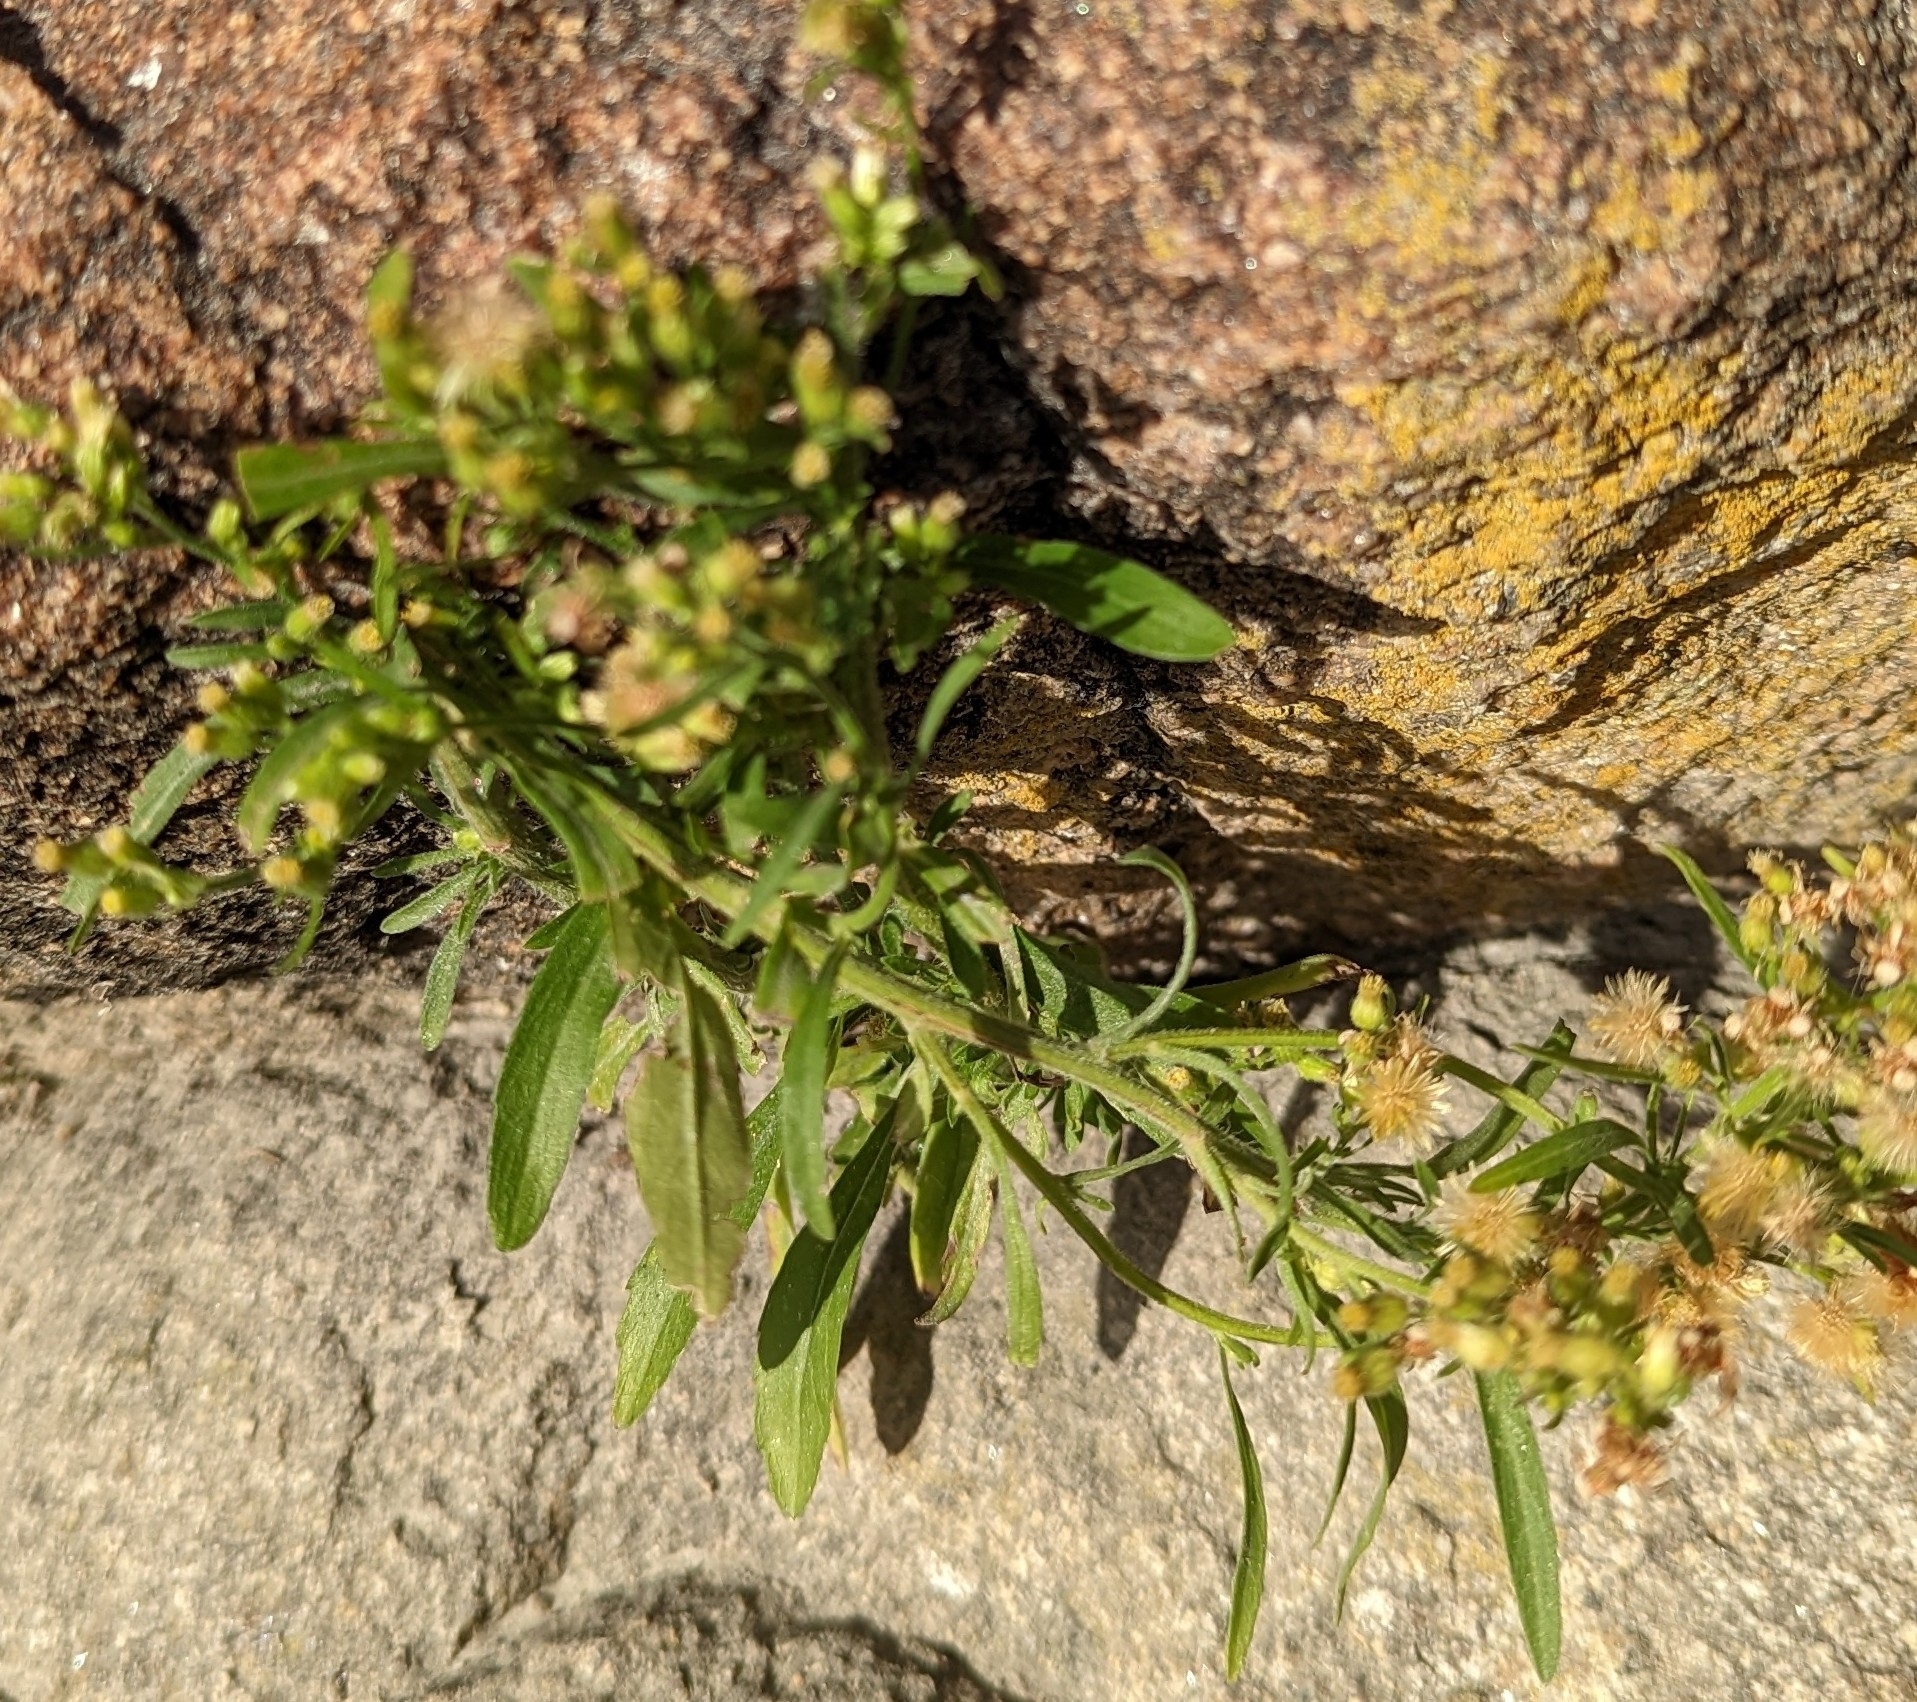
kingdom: Plantae
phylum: Tracheophyta
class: Magnoliopsida
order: Asterales
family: Asteraceae
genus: Erigeron
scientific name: Erigeron sumatrensis
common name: Daisy
